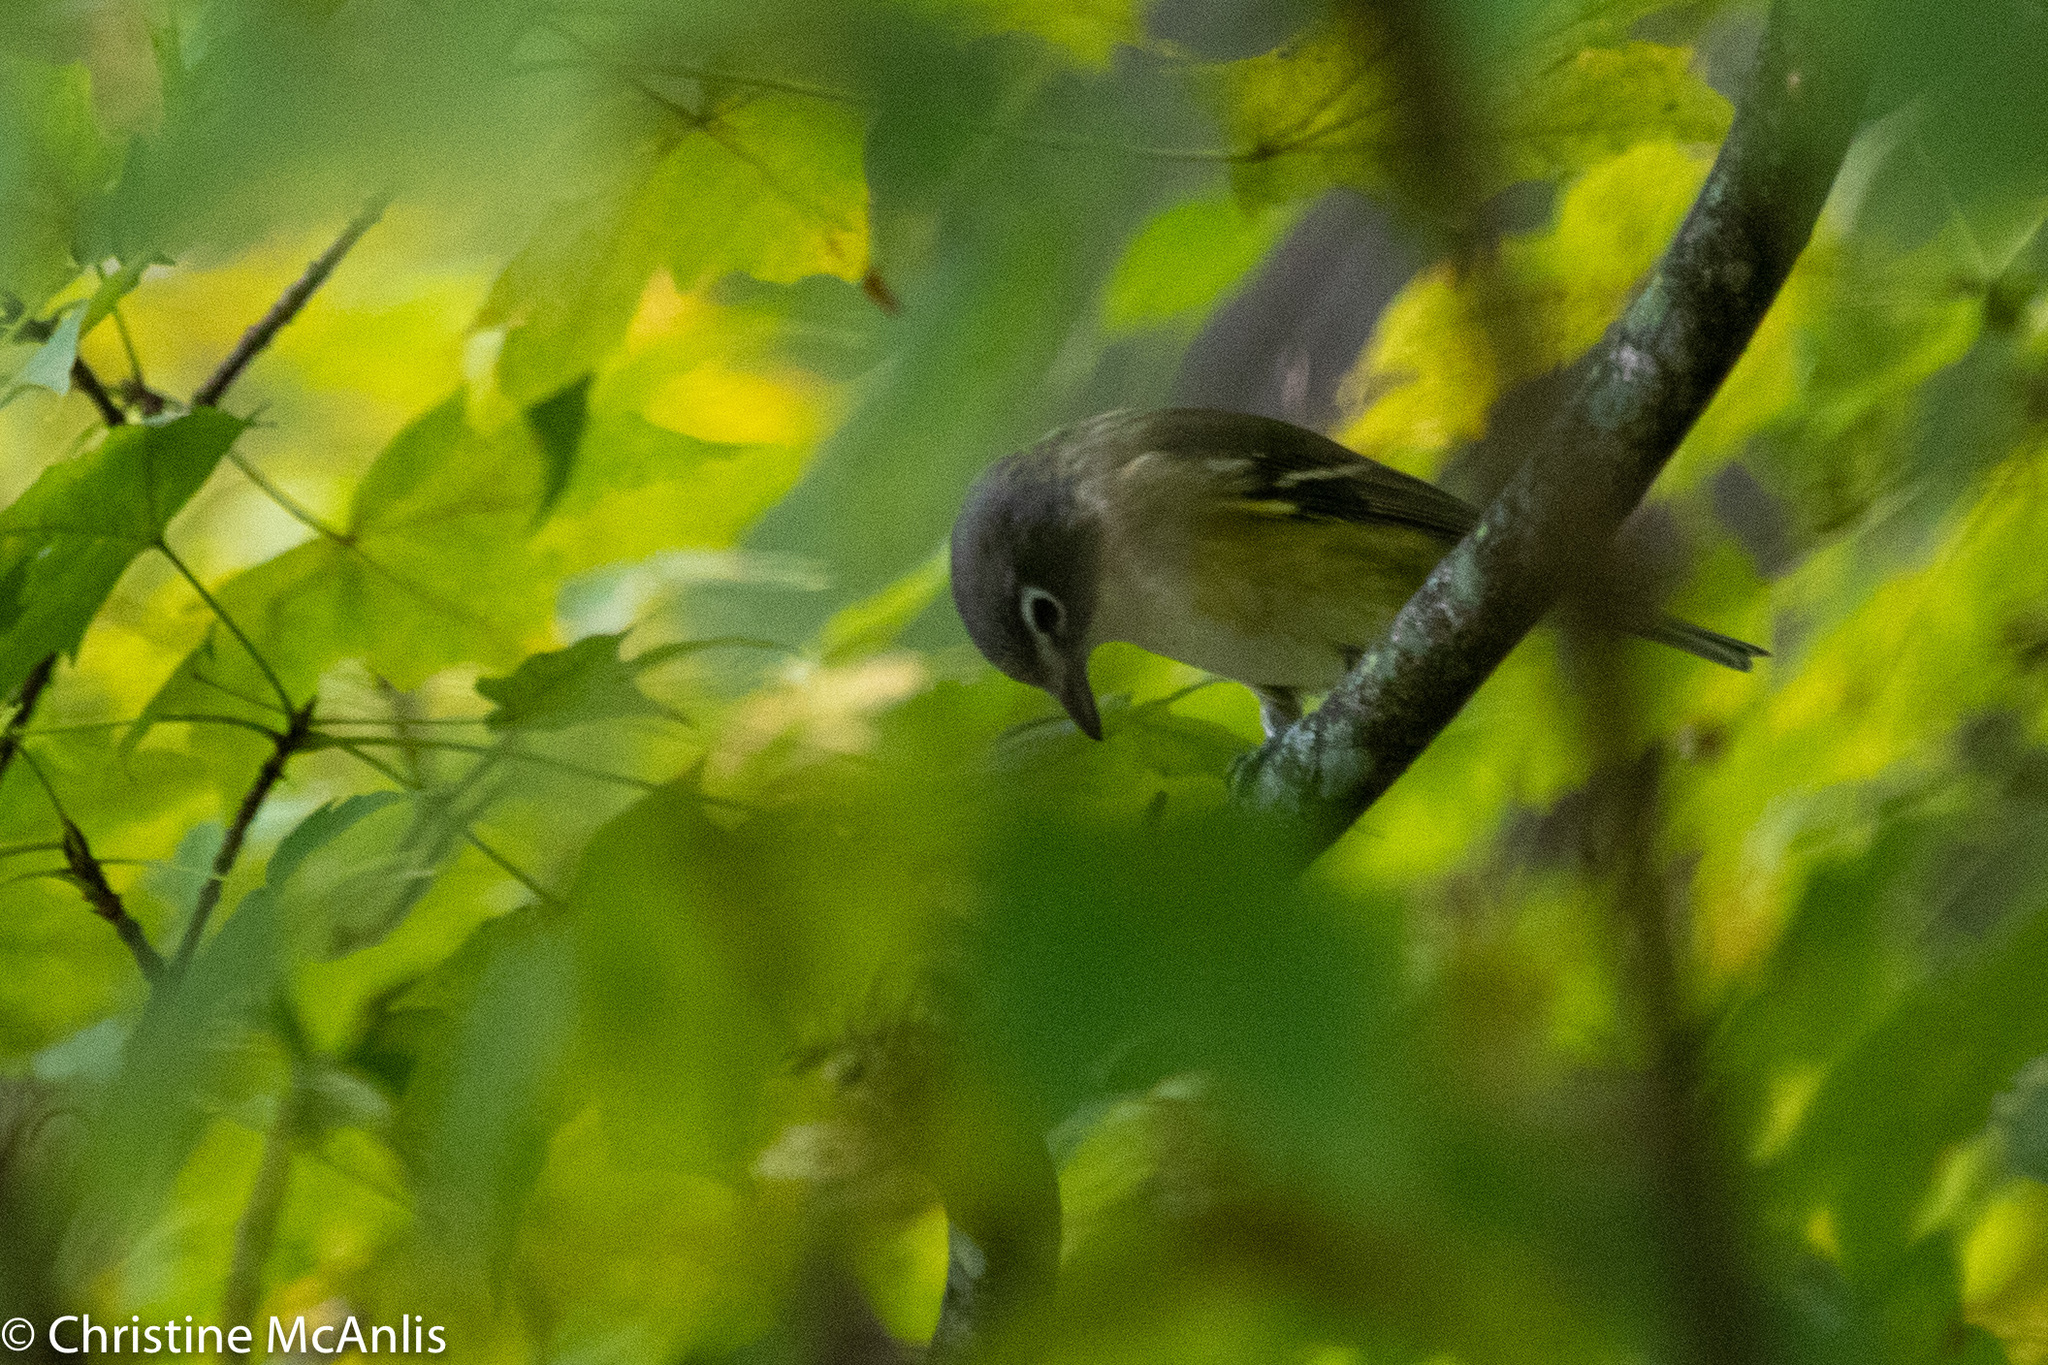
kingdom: Animalia
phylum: Chordata
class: Aves
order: Passeriformes
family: Vireonidae
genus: Vireo
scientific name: Vireo solitarius
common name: Blue-headed vireo
